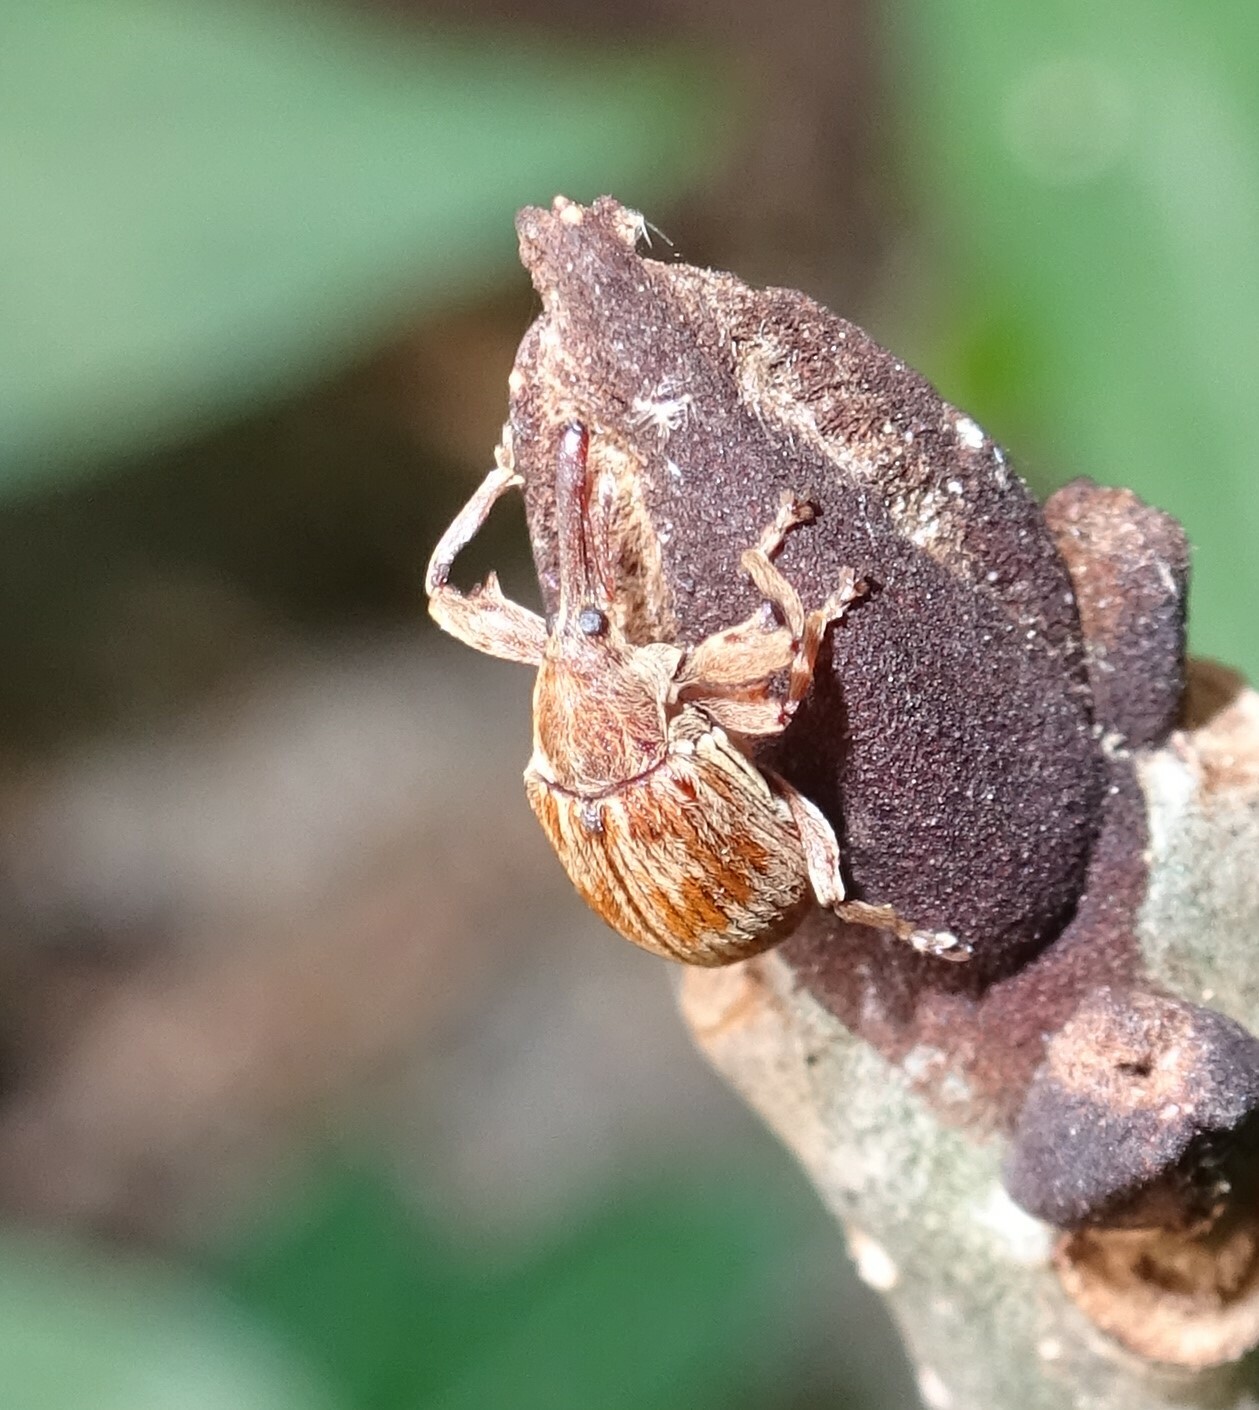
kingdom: Animalia
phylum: Arthropoda
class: Insecta
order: Coleoptera
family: Curculionidae
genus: Anthonomus
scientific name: Anthonomus rectirostris
